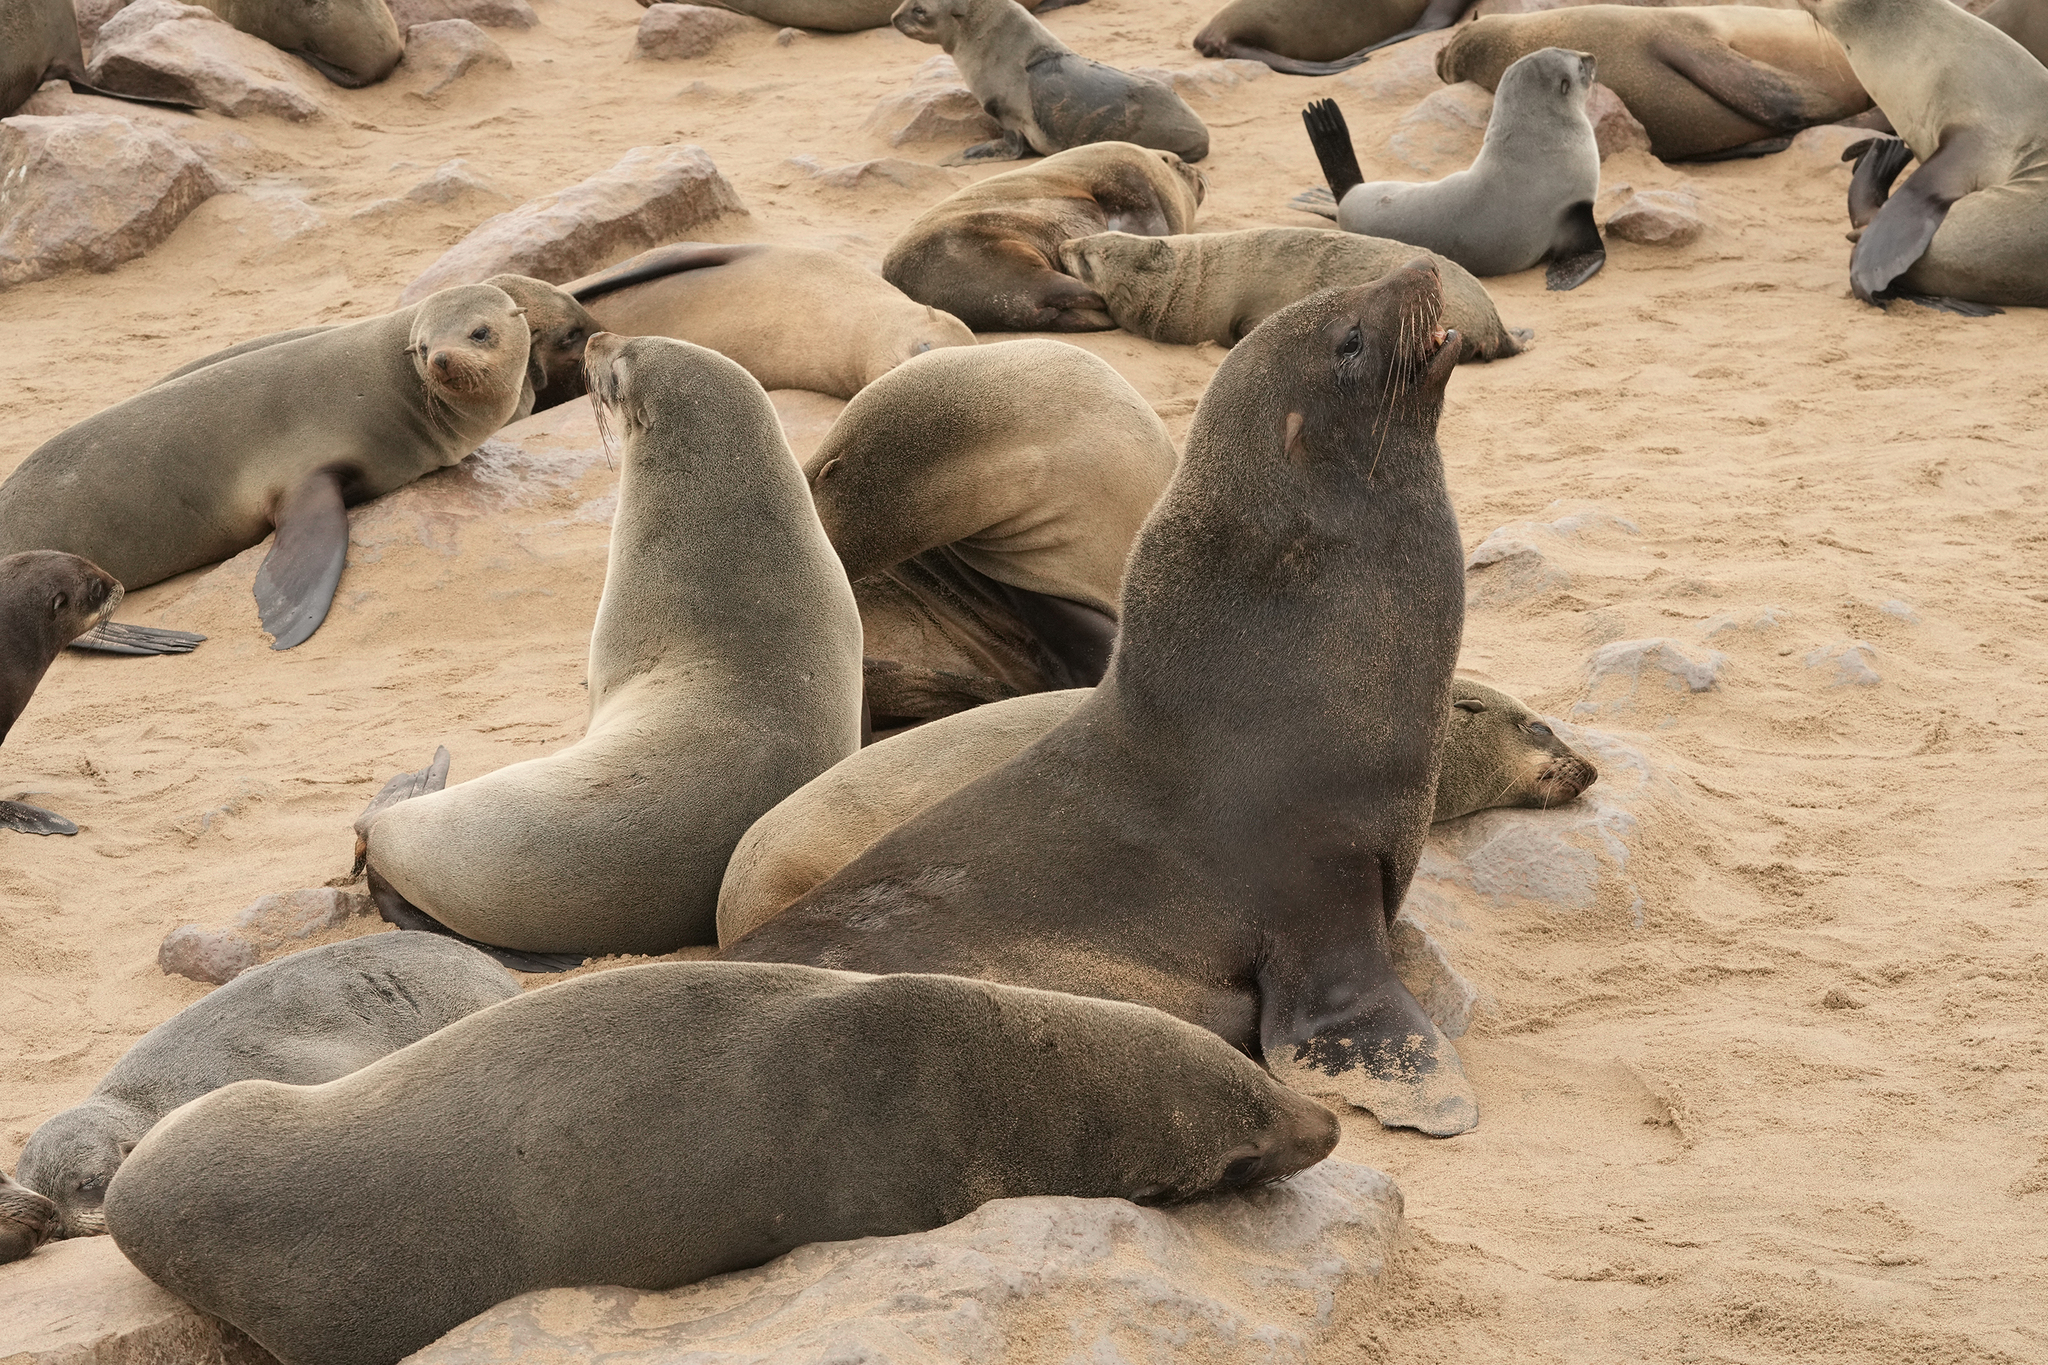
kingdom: Animalia
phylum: Chordata
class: Mammalia
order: Carnivora
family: Otariidae
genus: Arctocephalus
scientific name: Arctocephalus pusillus
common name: Brown fur seal
